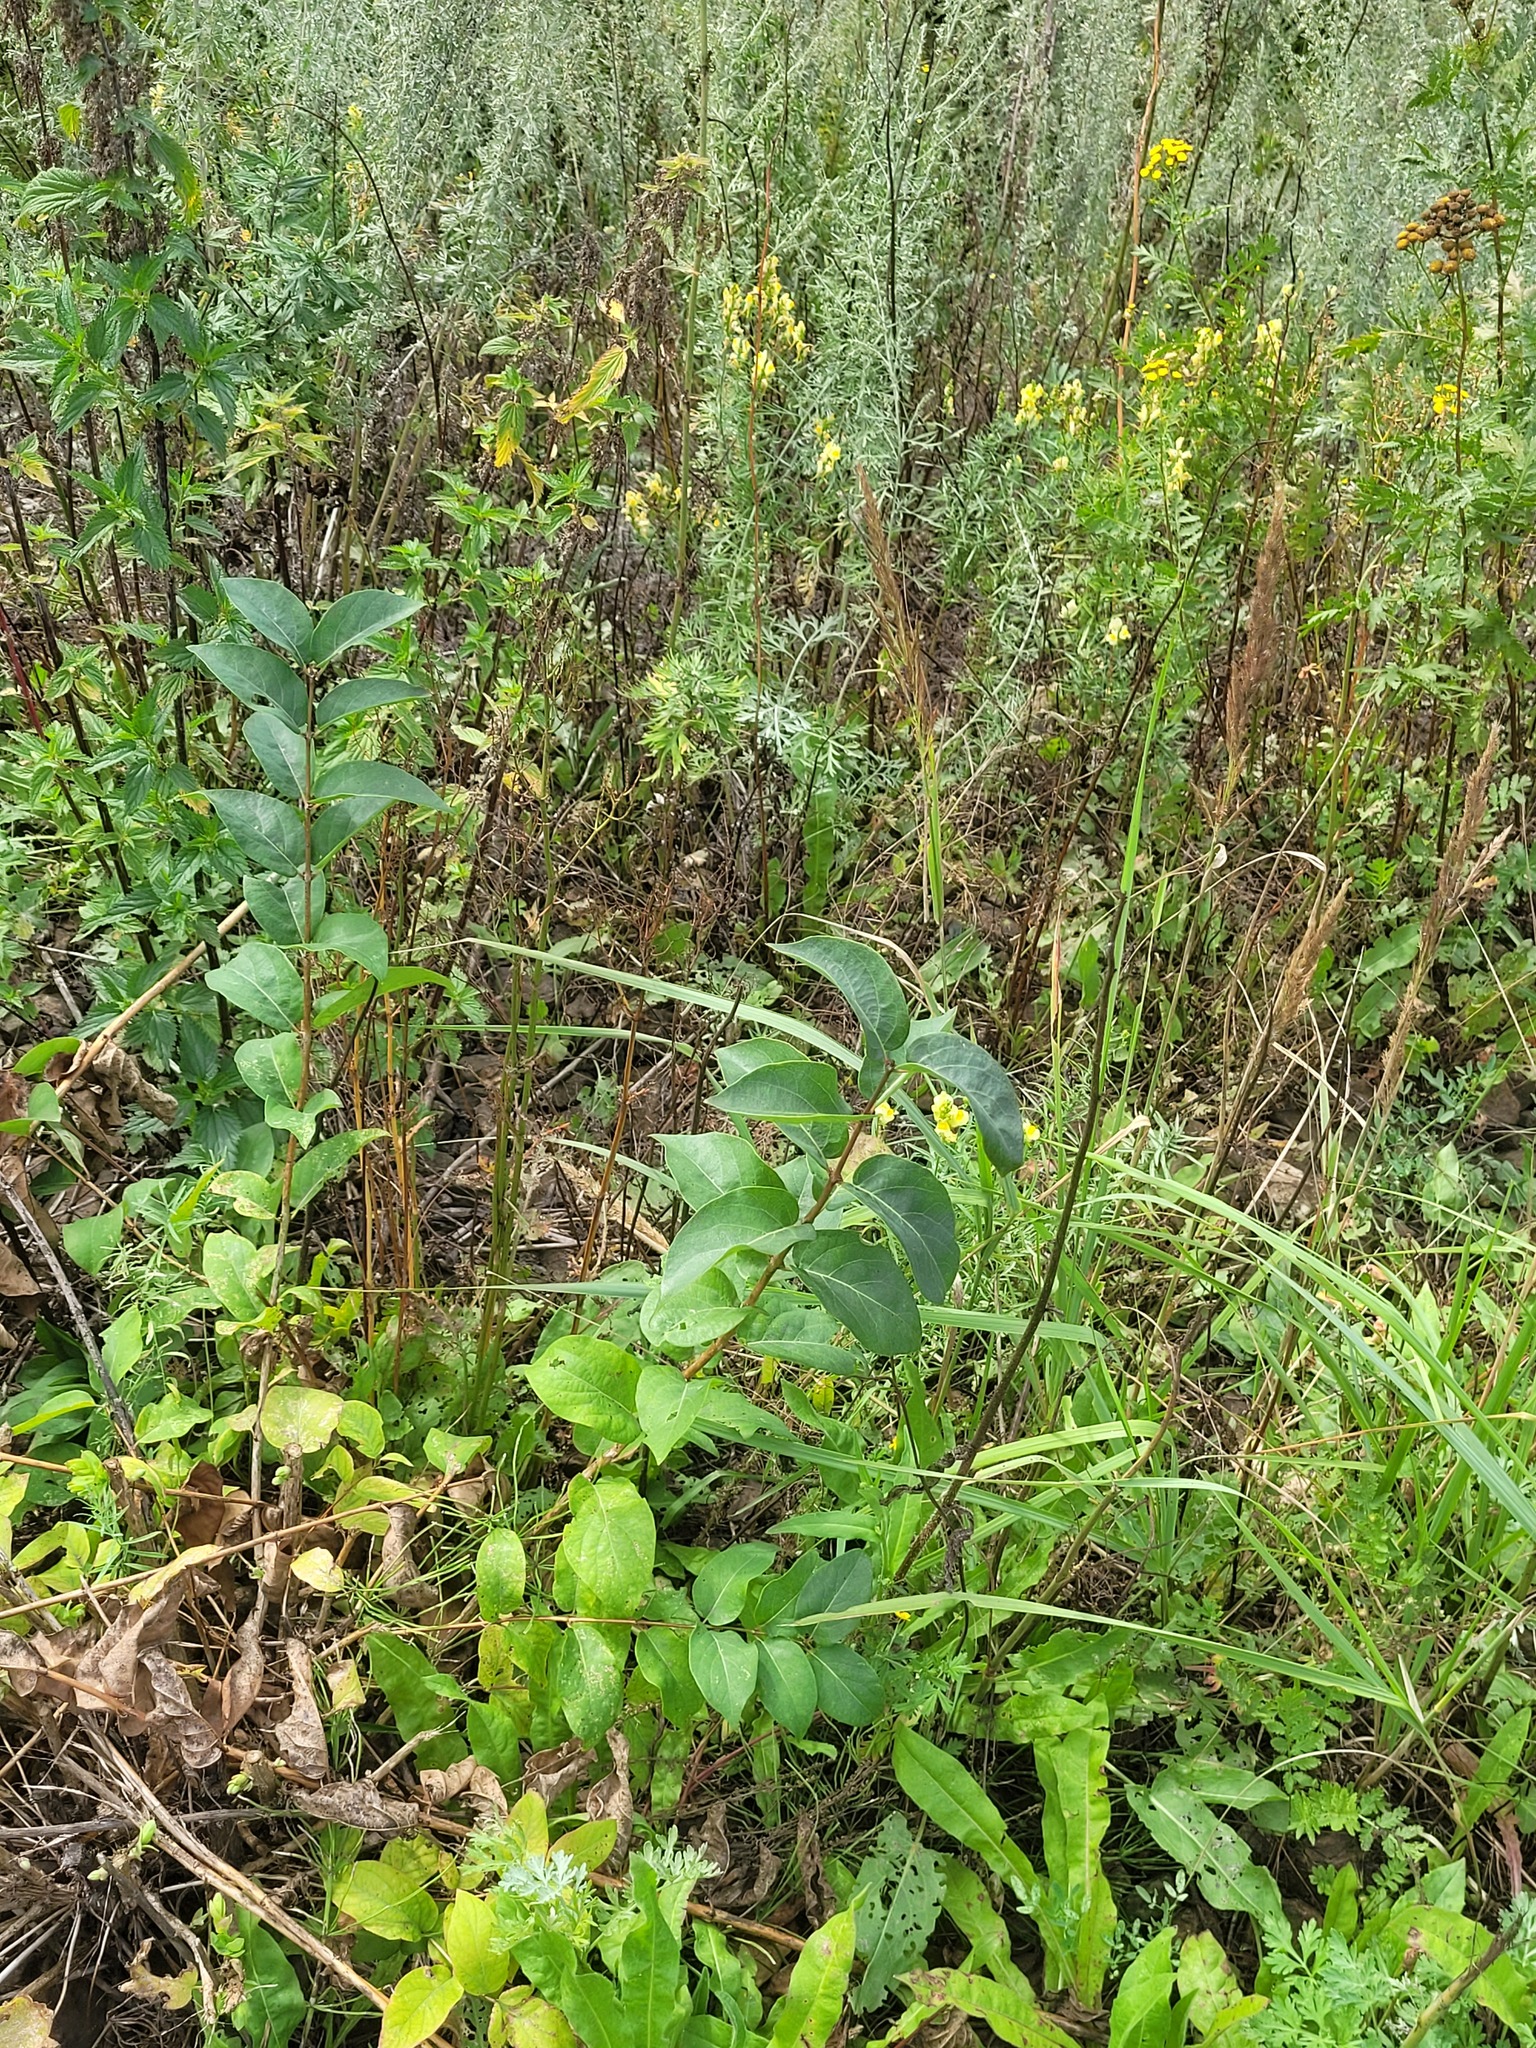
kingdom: Plantae
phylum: Tracheophyta
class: Magnoliopsida
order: Dipsacales
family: Caprifoliaceae
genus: Lonicera
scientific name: Lonicera tatarica
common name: Tatarian honeysuckle
